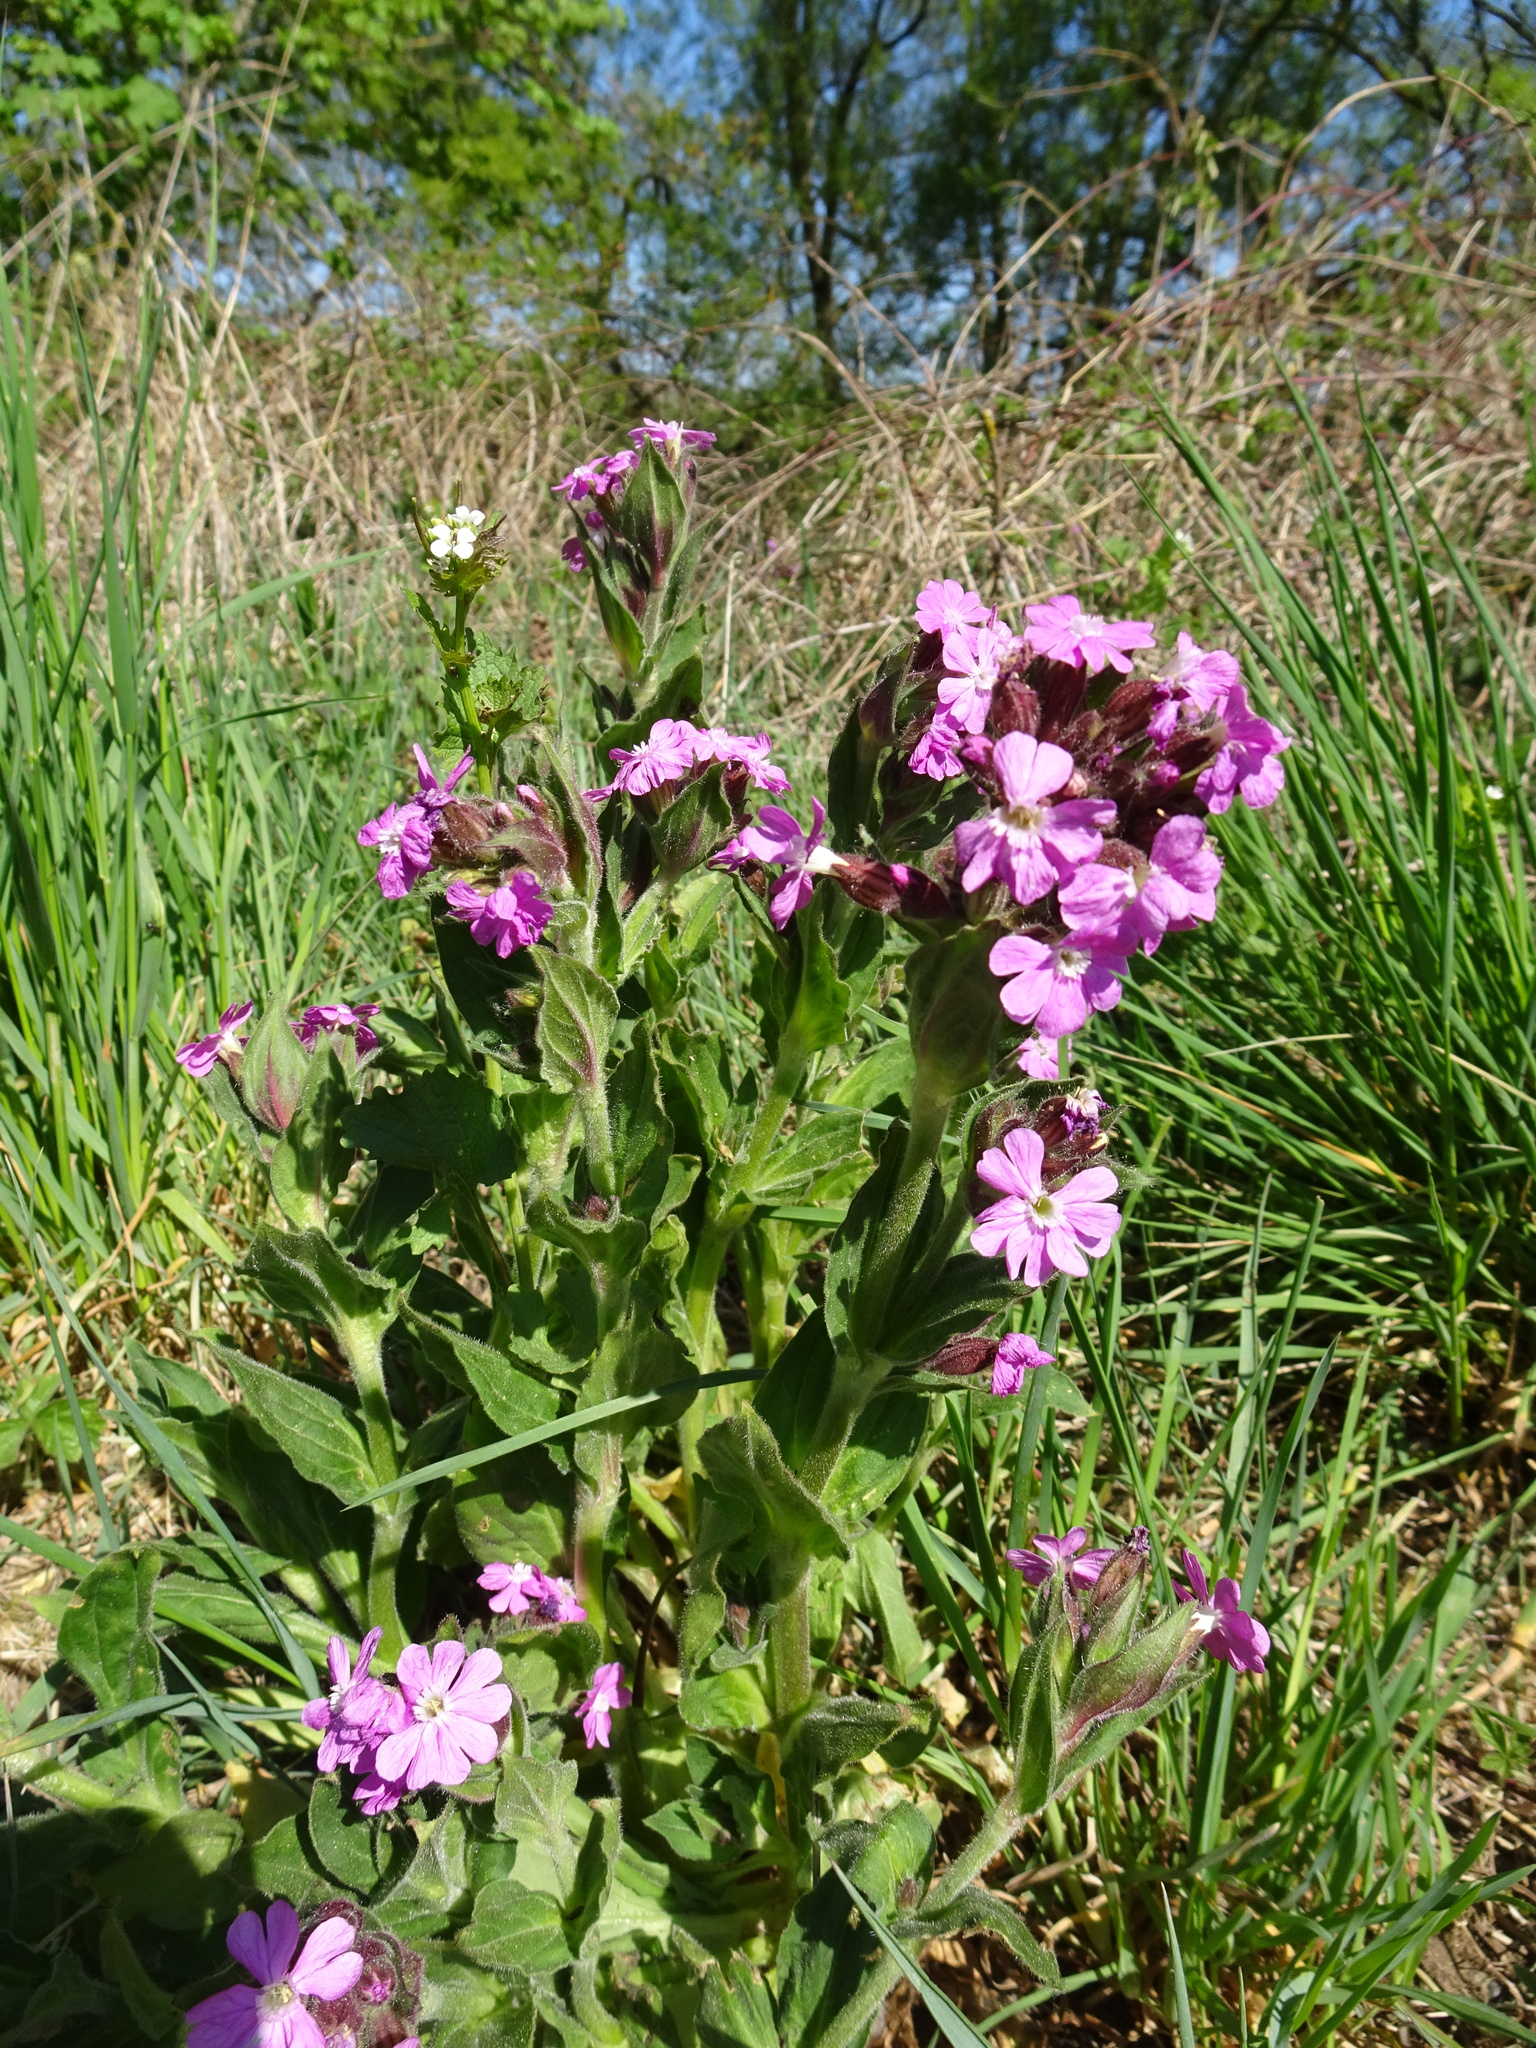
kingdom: Plantae
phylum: Tracheophyta
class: Magnoliopsida
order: Caryophyllales
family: Caryophyllaceae
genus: Silene
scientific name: Silene dioica
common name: Red campion
